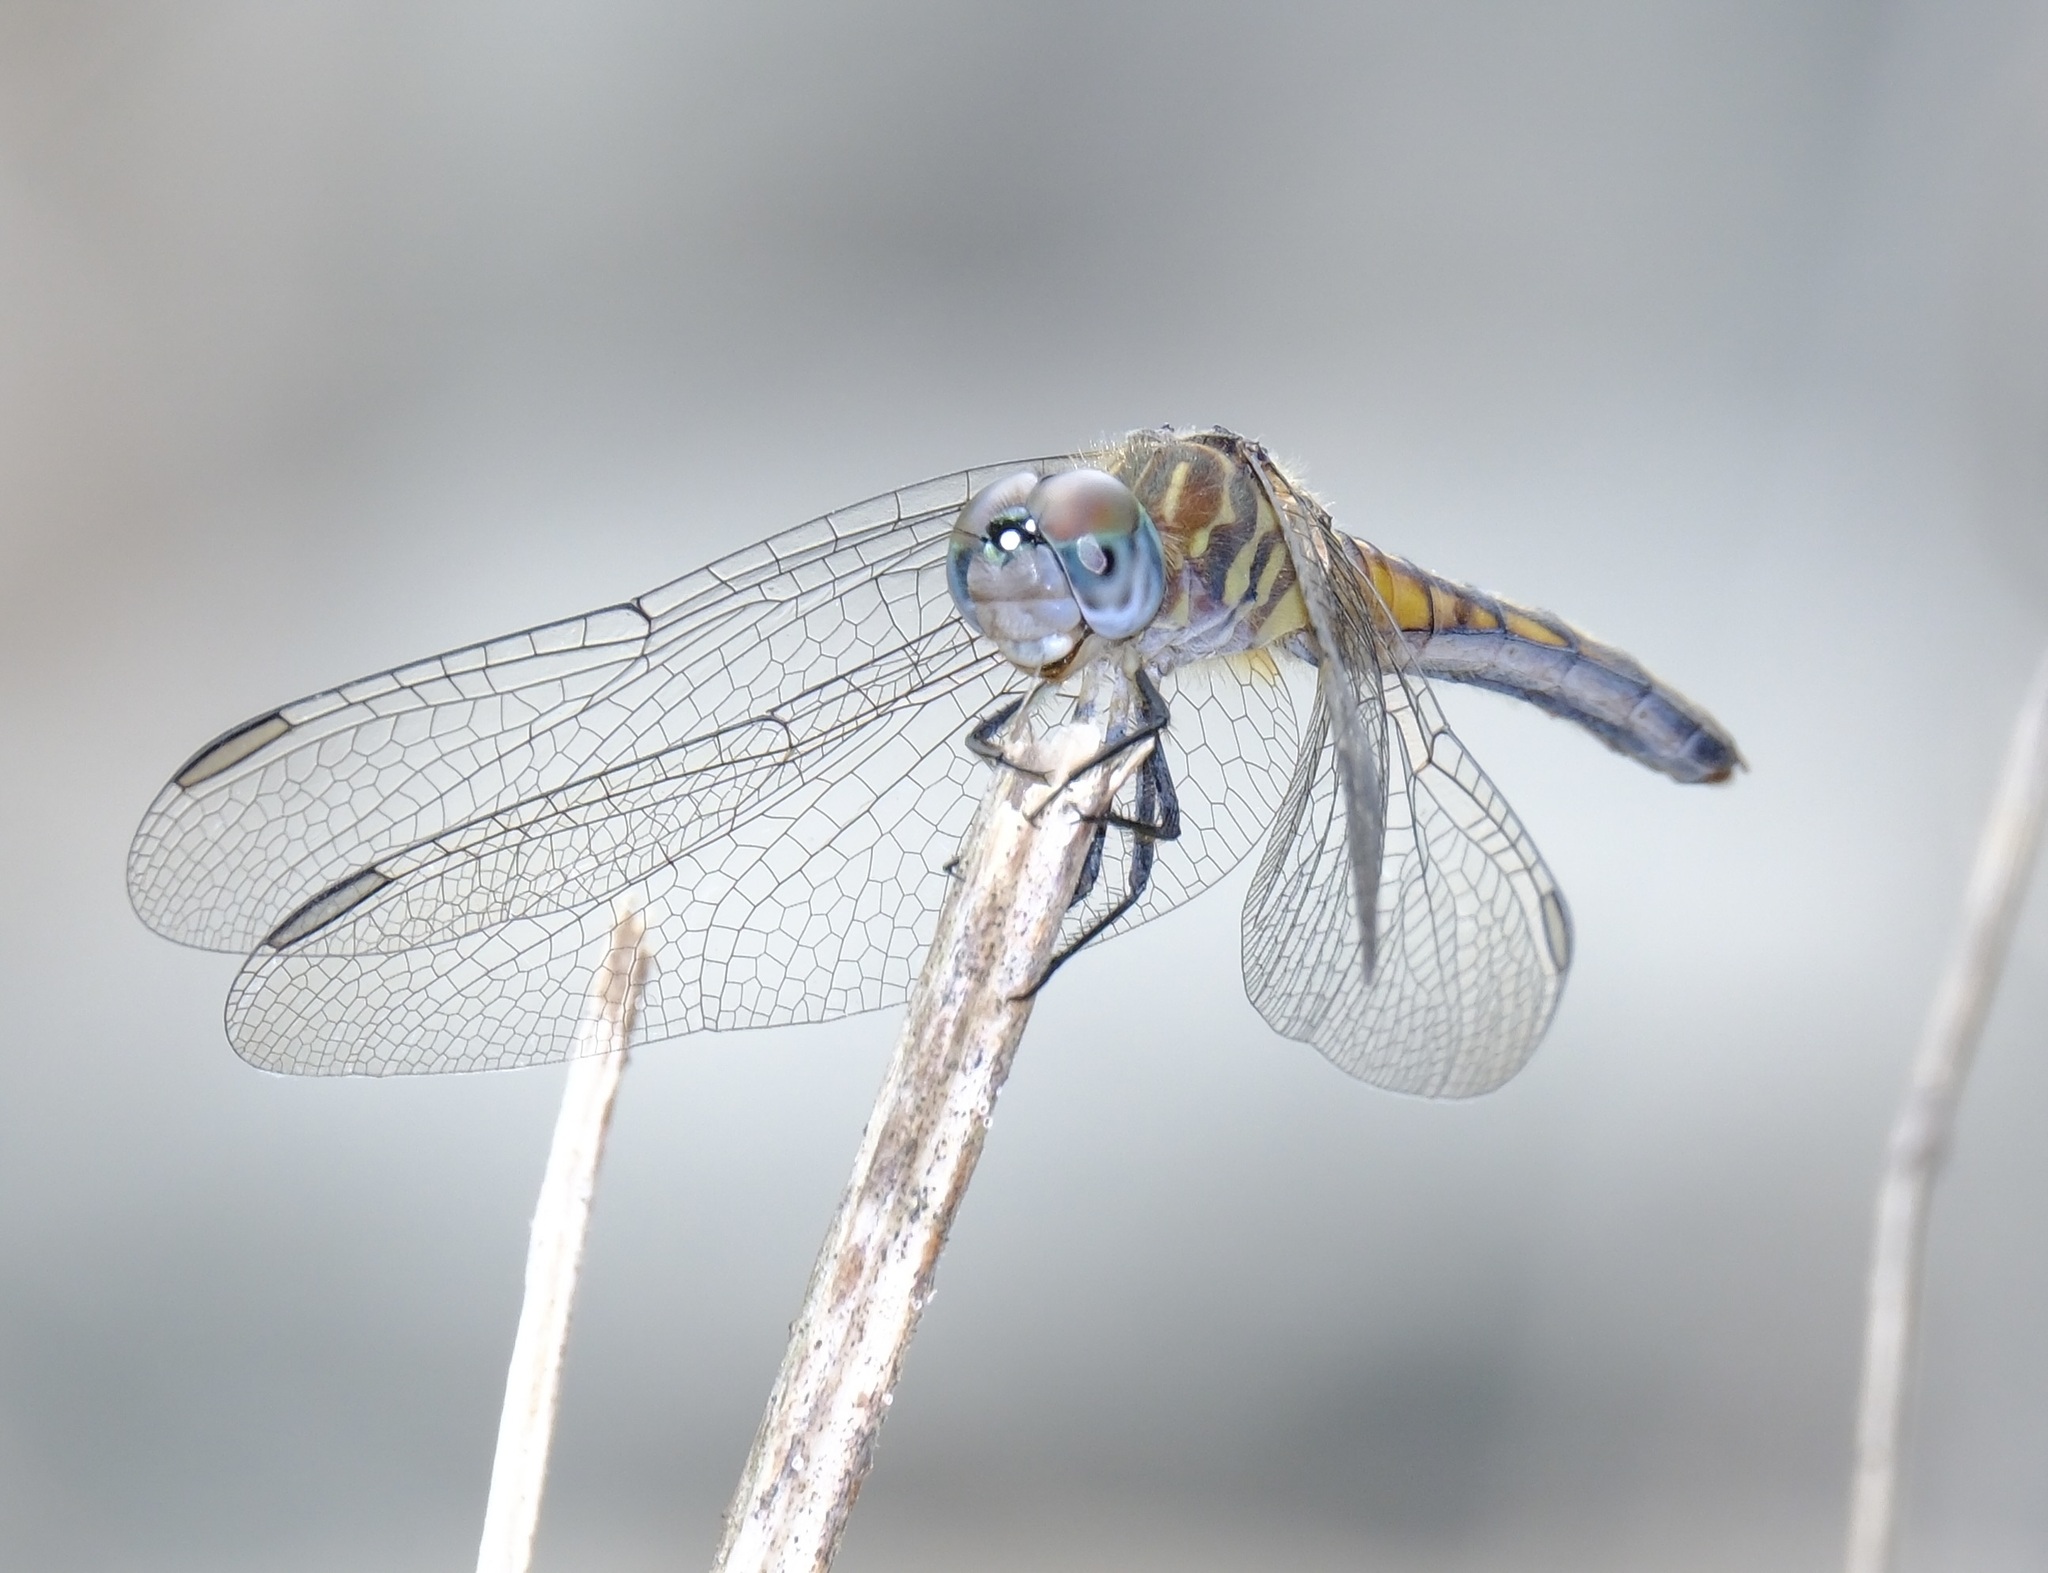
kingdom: Animalia
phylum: Arthropoda
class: Insecta
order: Odonata
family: Libellulidae
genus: Pachydiplax
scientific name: Pachydiplax longipennis
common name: Blue dasher
